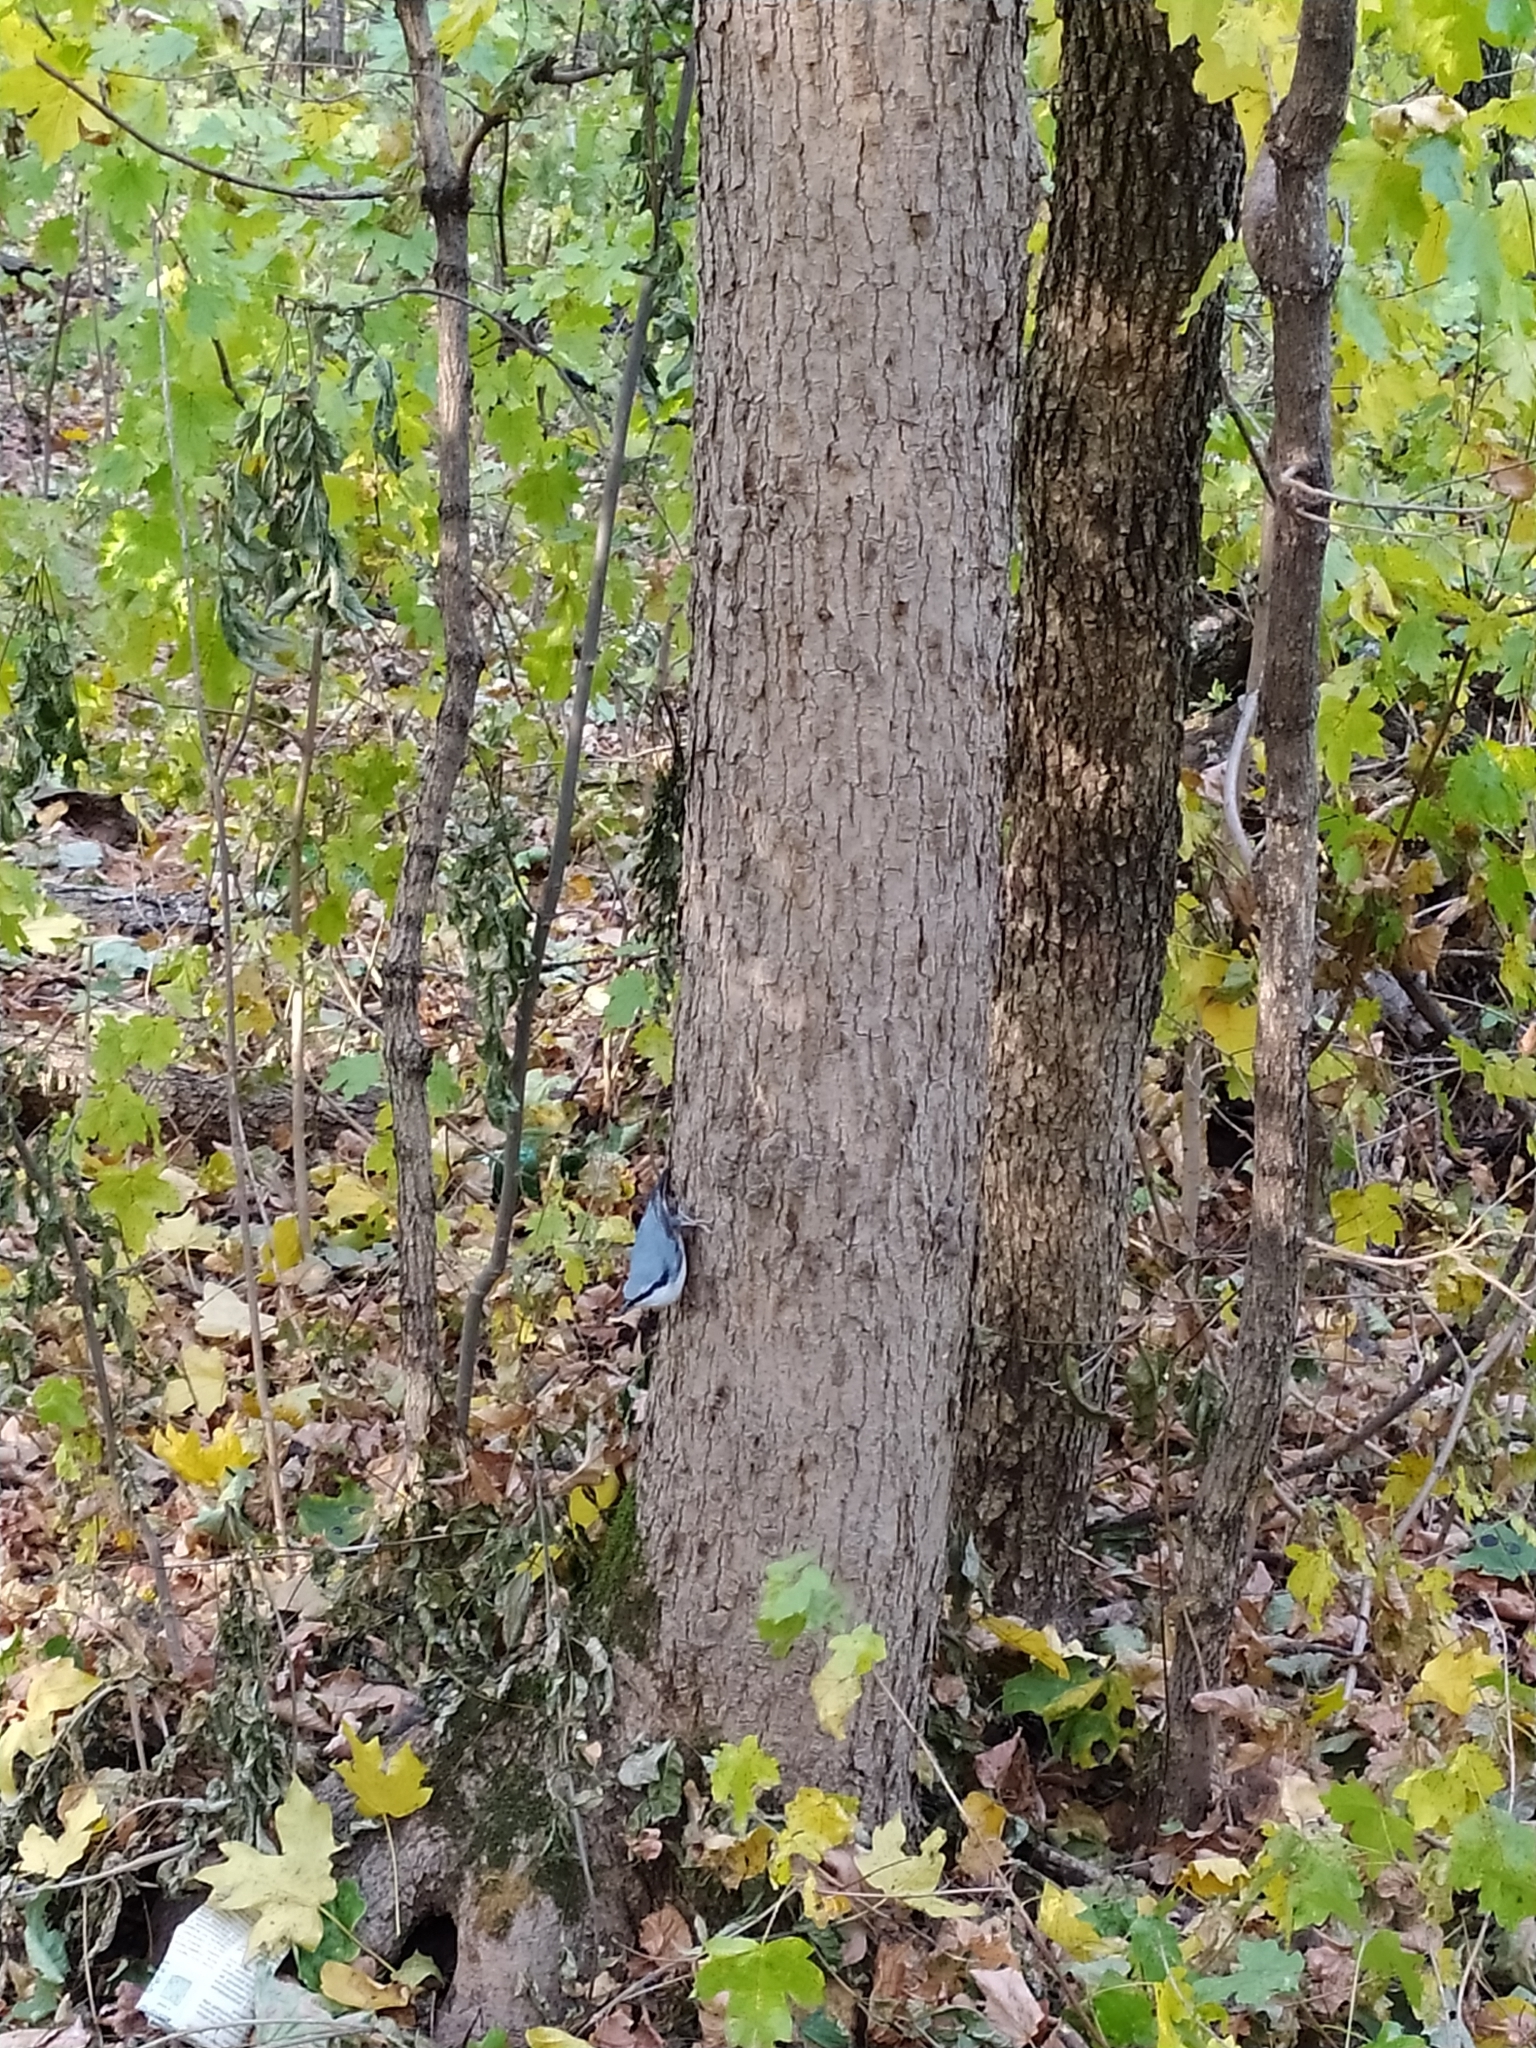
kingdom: Animalia
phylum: Chordata
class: Aves
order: Passeriformes
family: Sittidae
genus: Sitta
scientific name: Sitta europaea
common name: Eurasian nuthatch
